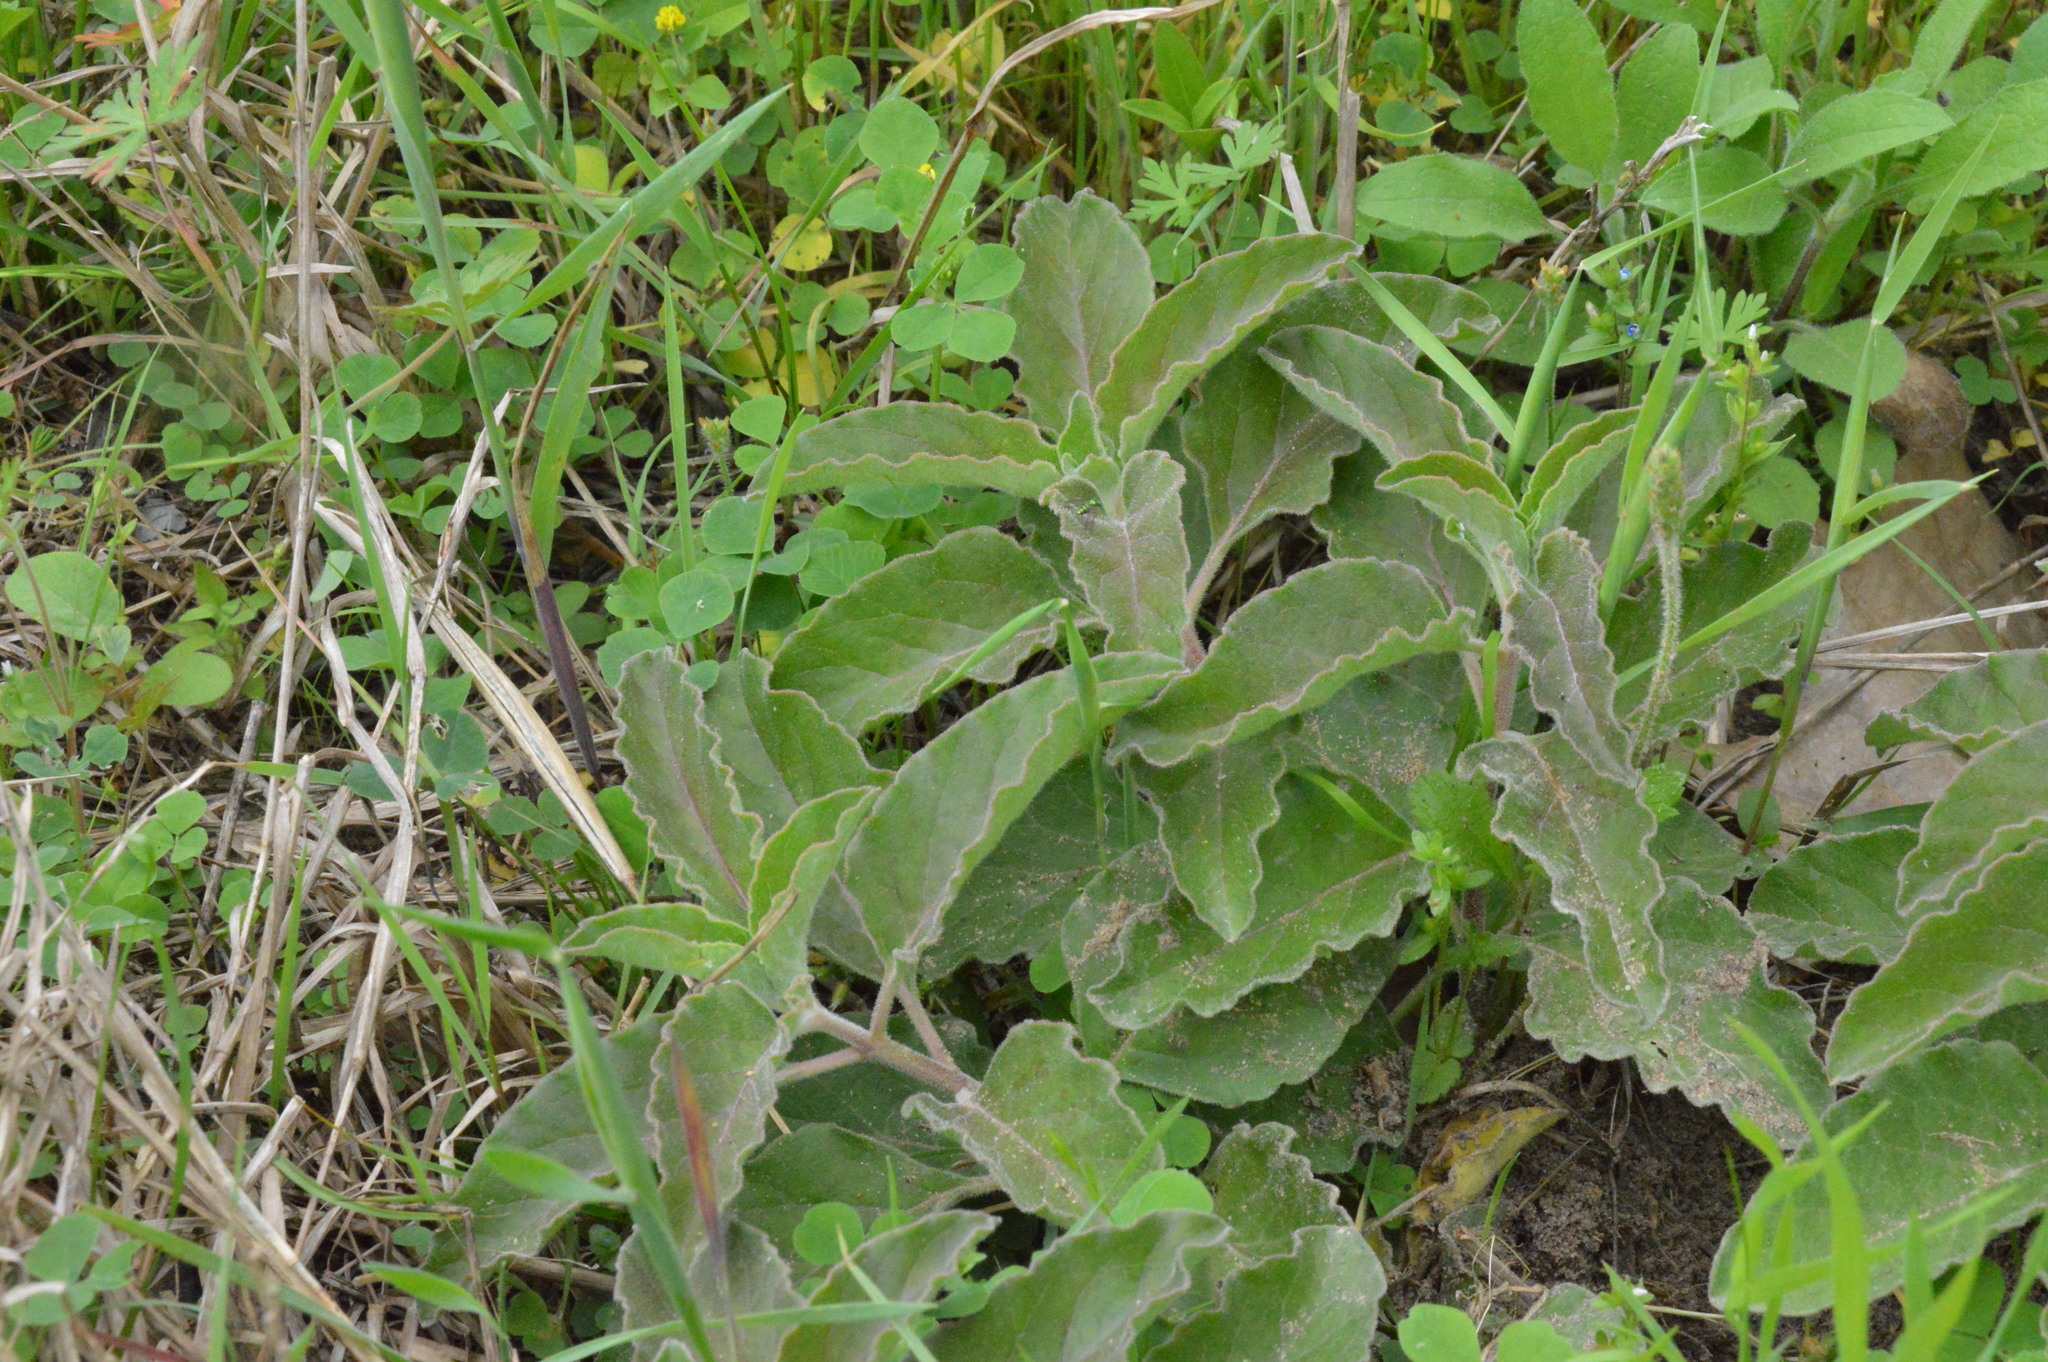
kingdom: Plantae
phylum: Tracheophyta
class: Magnoliopsida
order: Gentianales
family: Apocynaceae
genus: Asclepias
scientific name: Asclepias oenotheroides
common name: Zizotes milkweed
